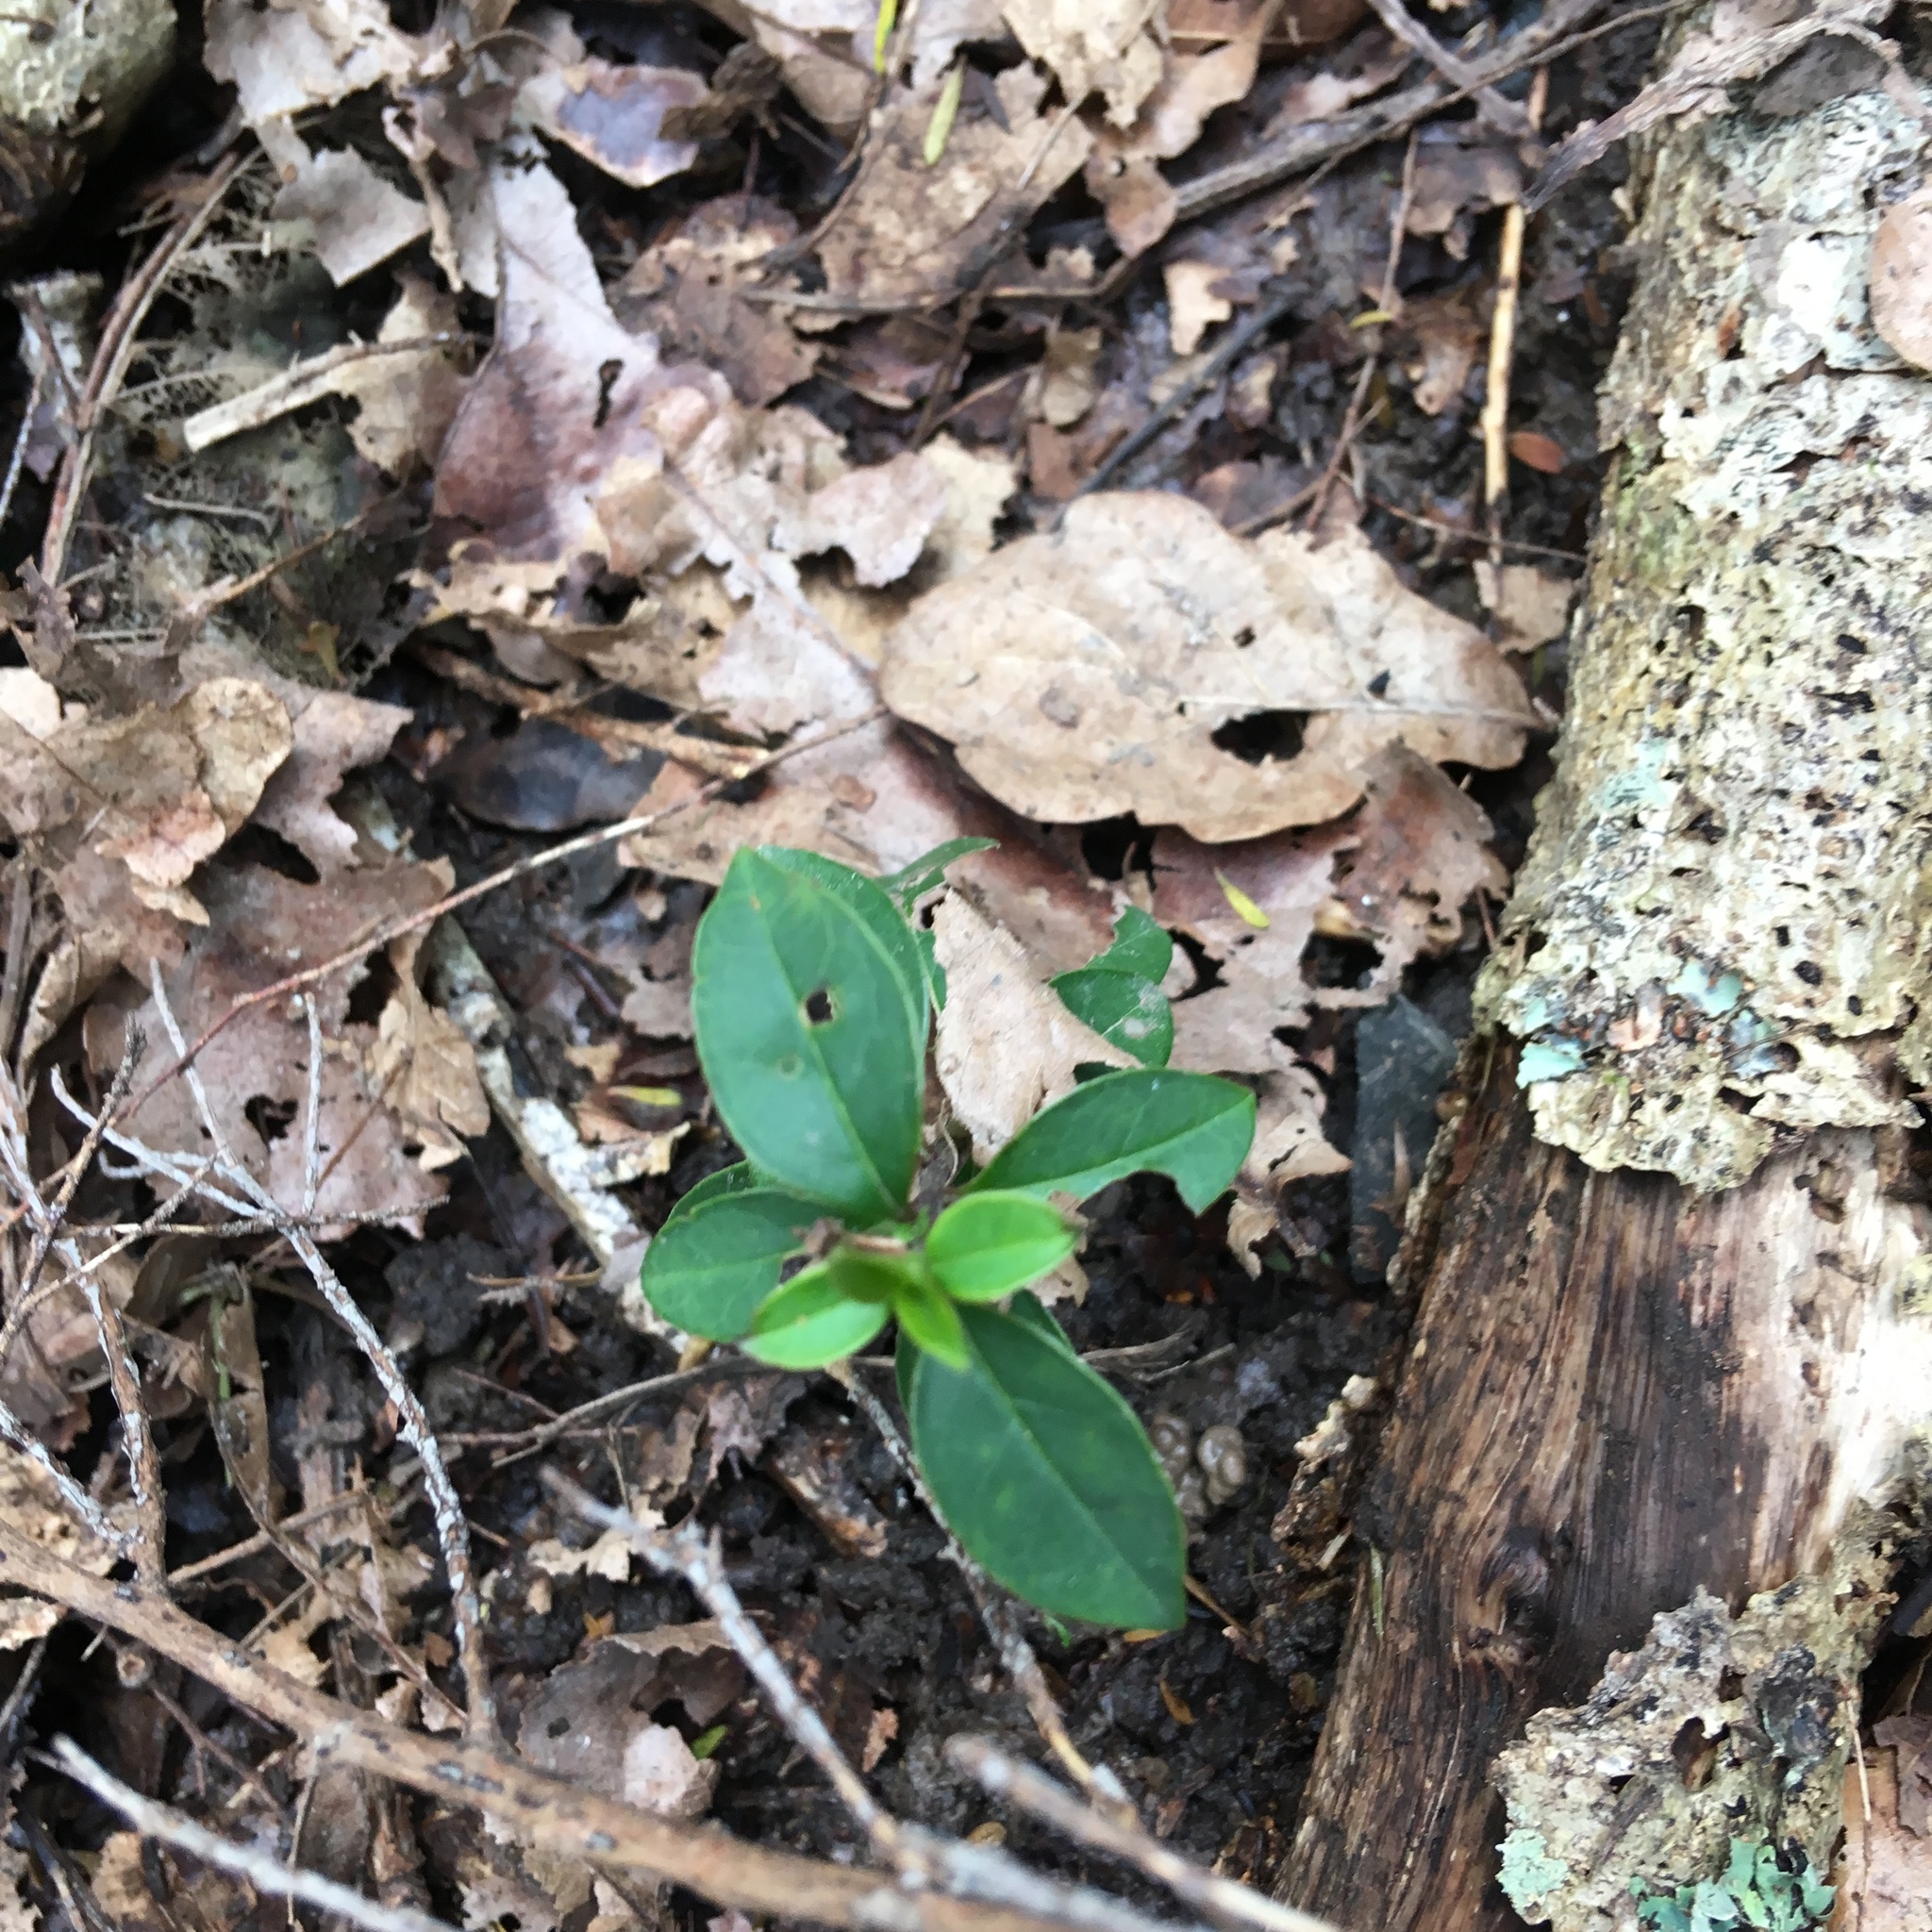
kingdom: Plantae
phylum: Tracheophyta
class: Magnoliopsida
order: Lamiales
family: Oleaceae
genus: Ligustrum
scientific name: Ligustrum lucidum
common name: Glossy privet
